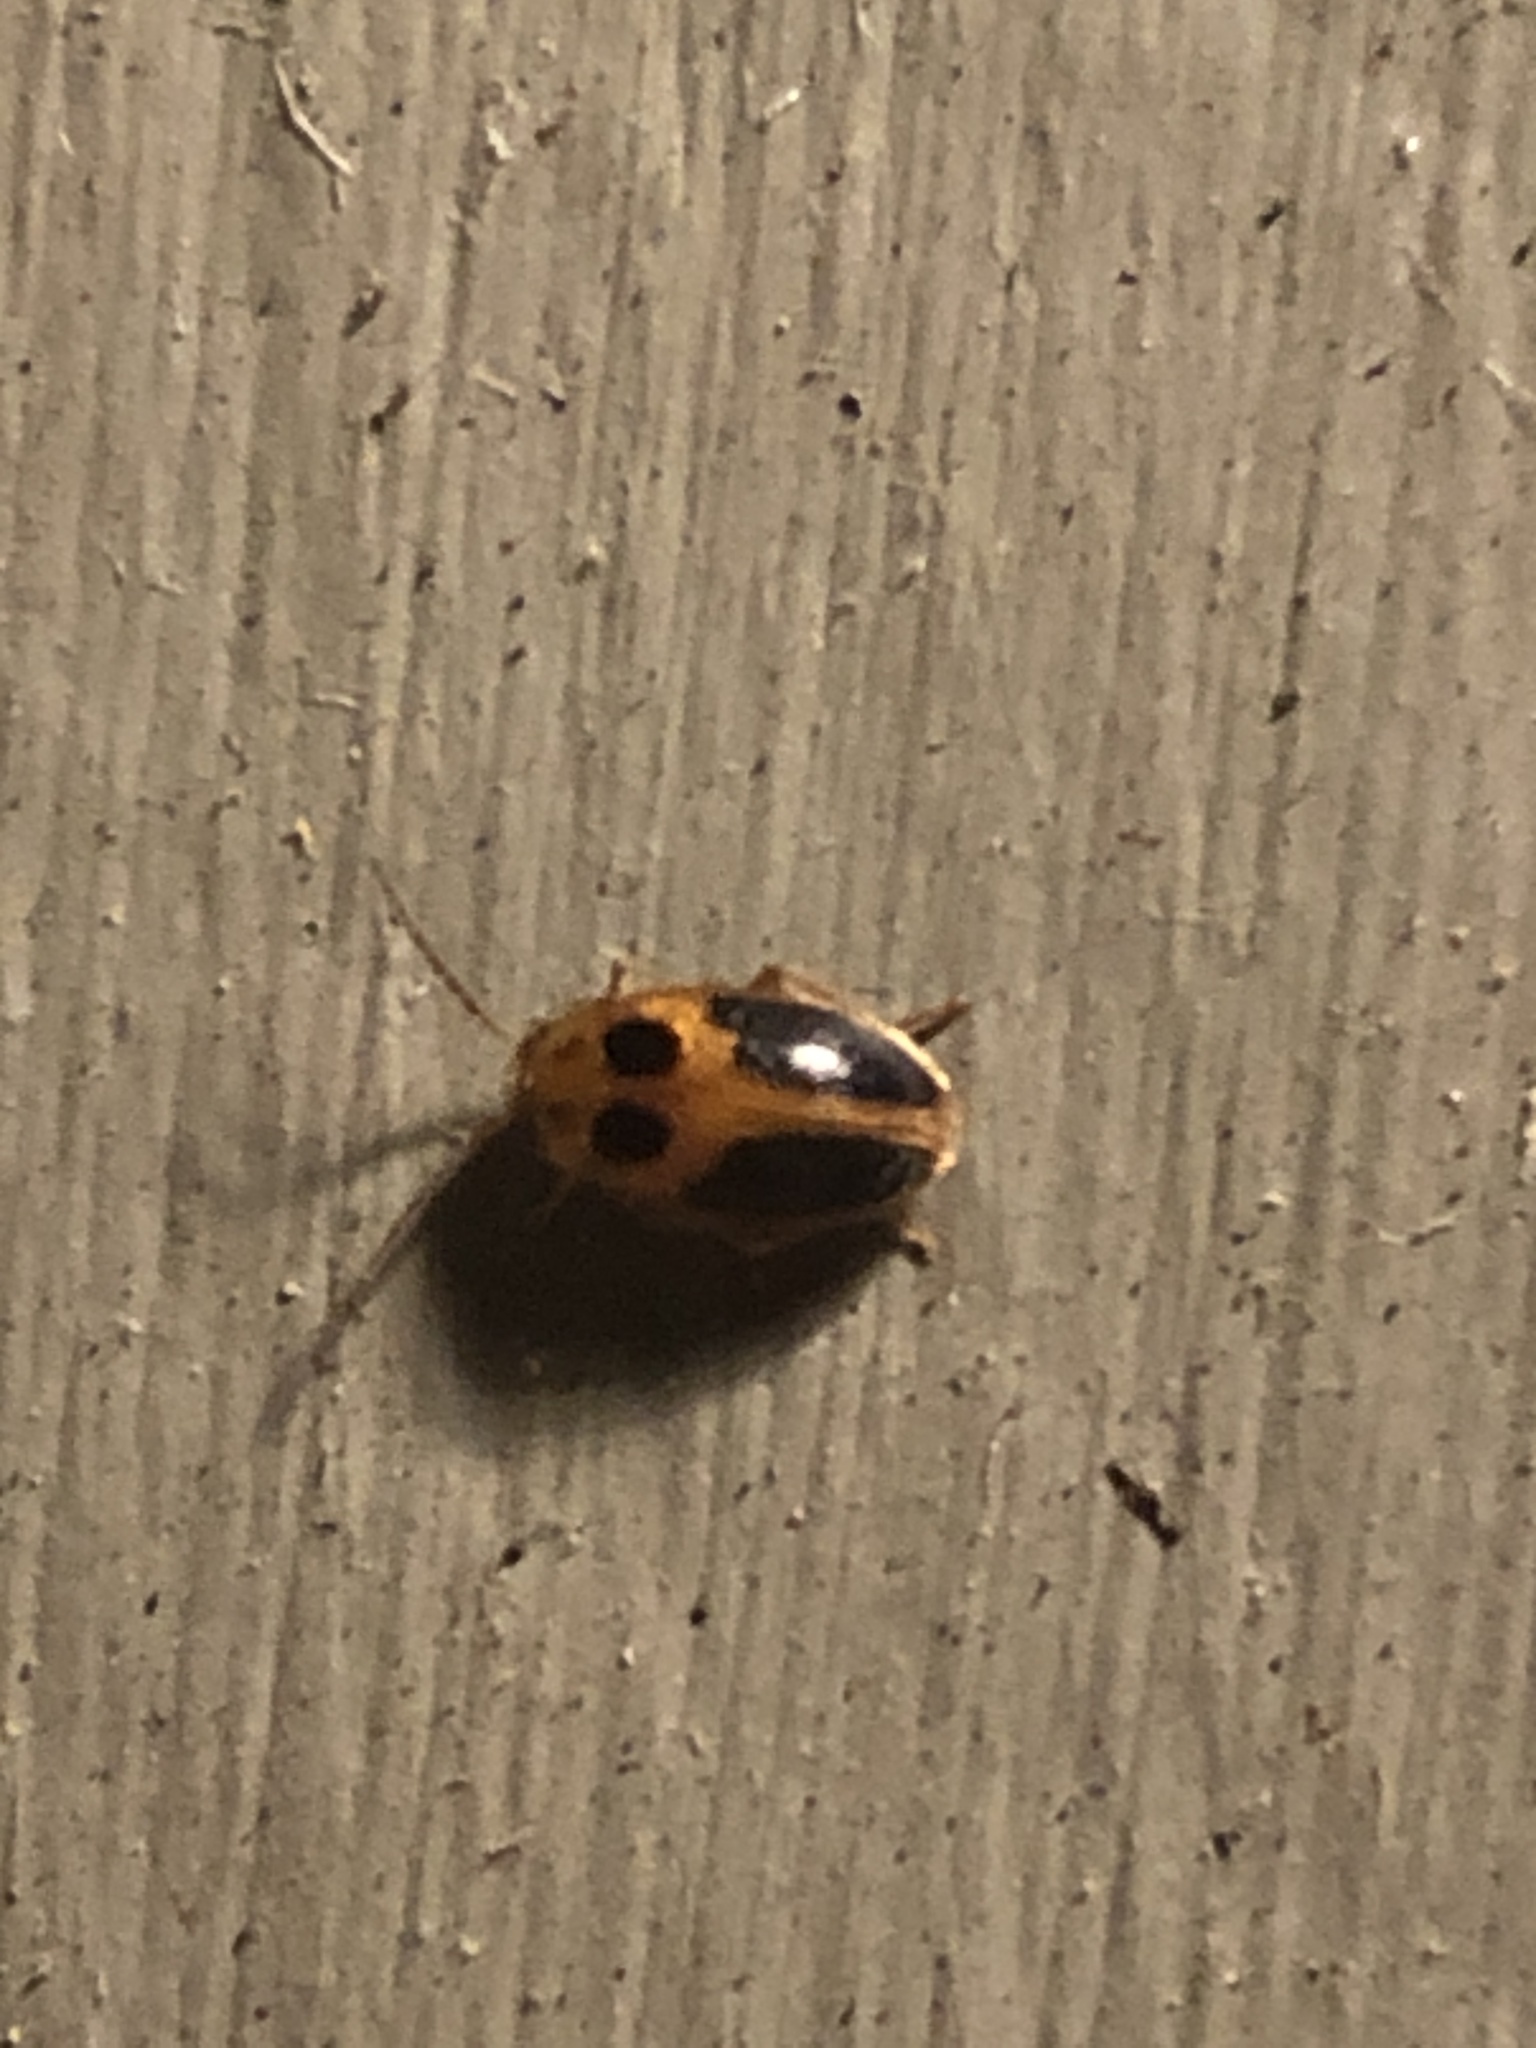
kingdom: Animalia
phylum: Arthropoda
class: Insecta
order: Coleoptera
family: Scirtidae
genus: Sacodes
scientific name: Sacodes pulchella
